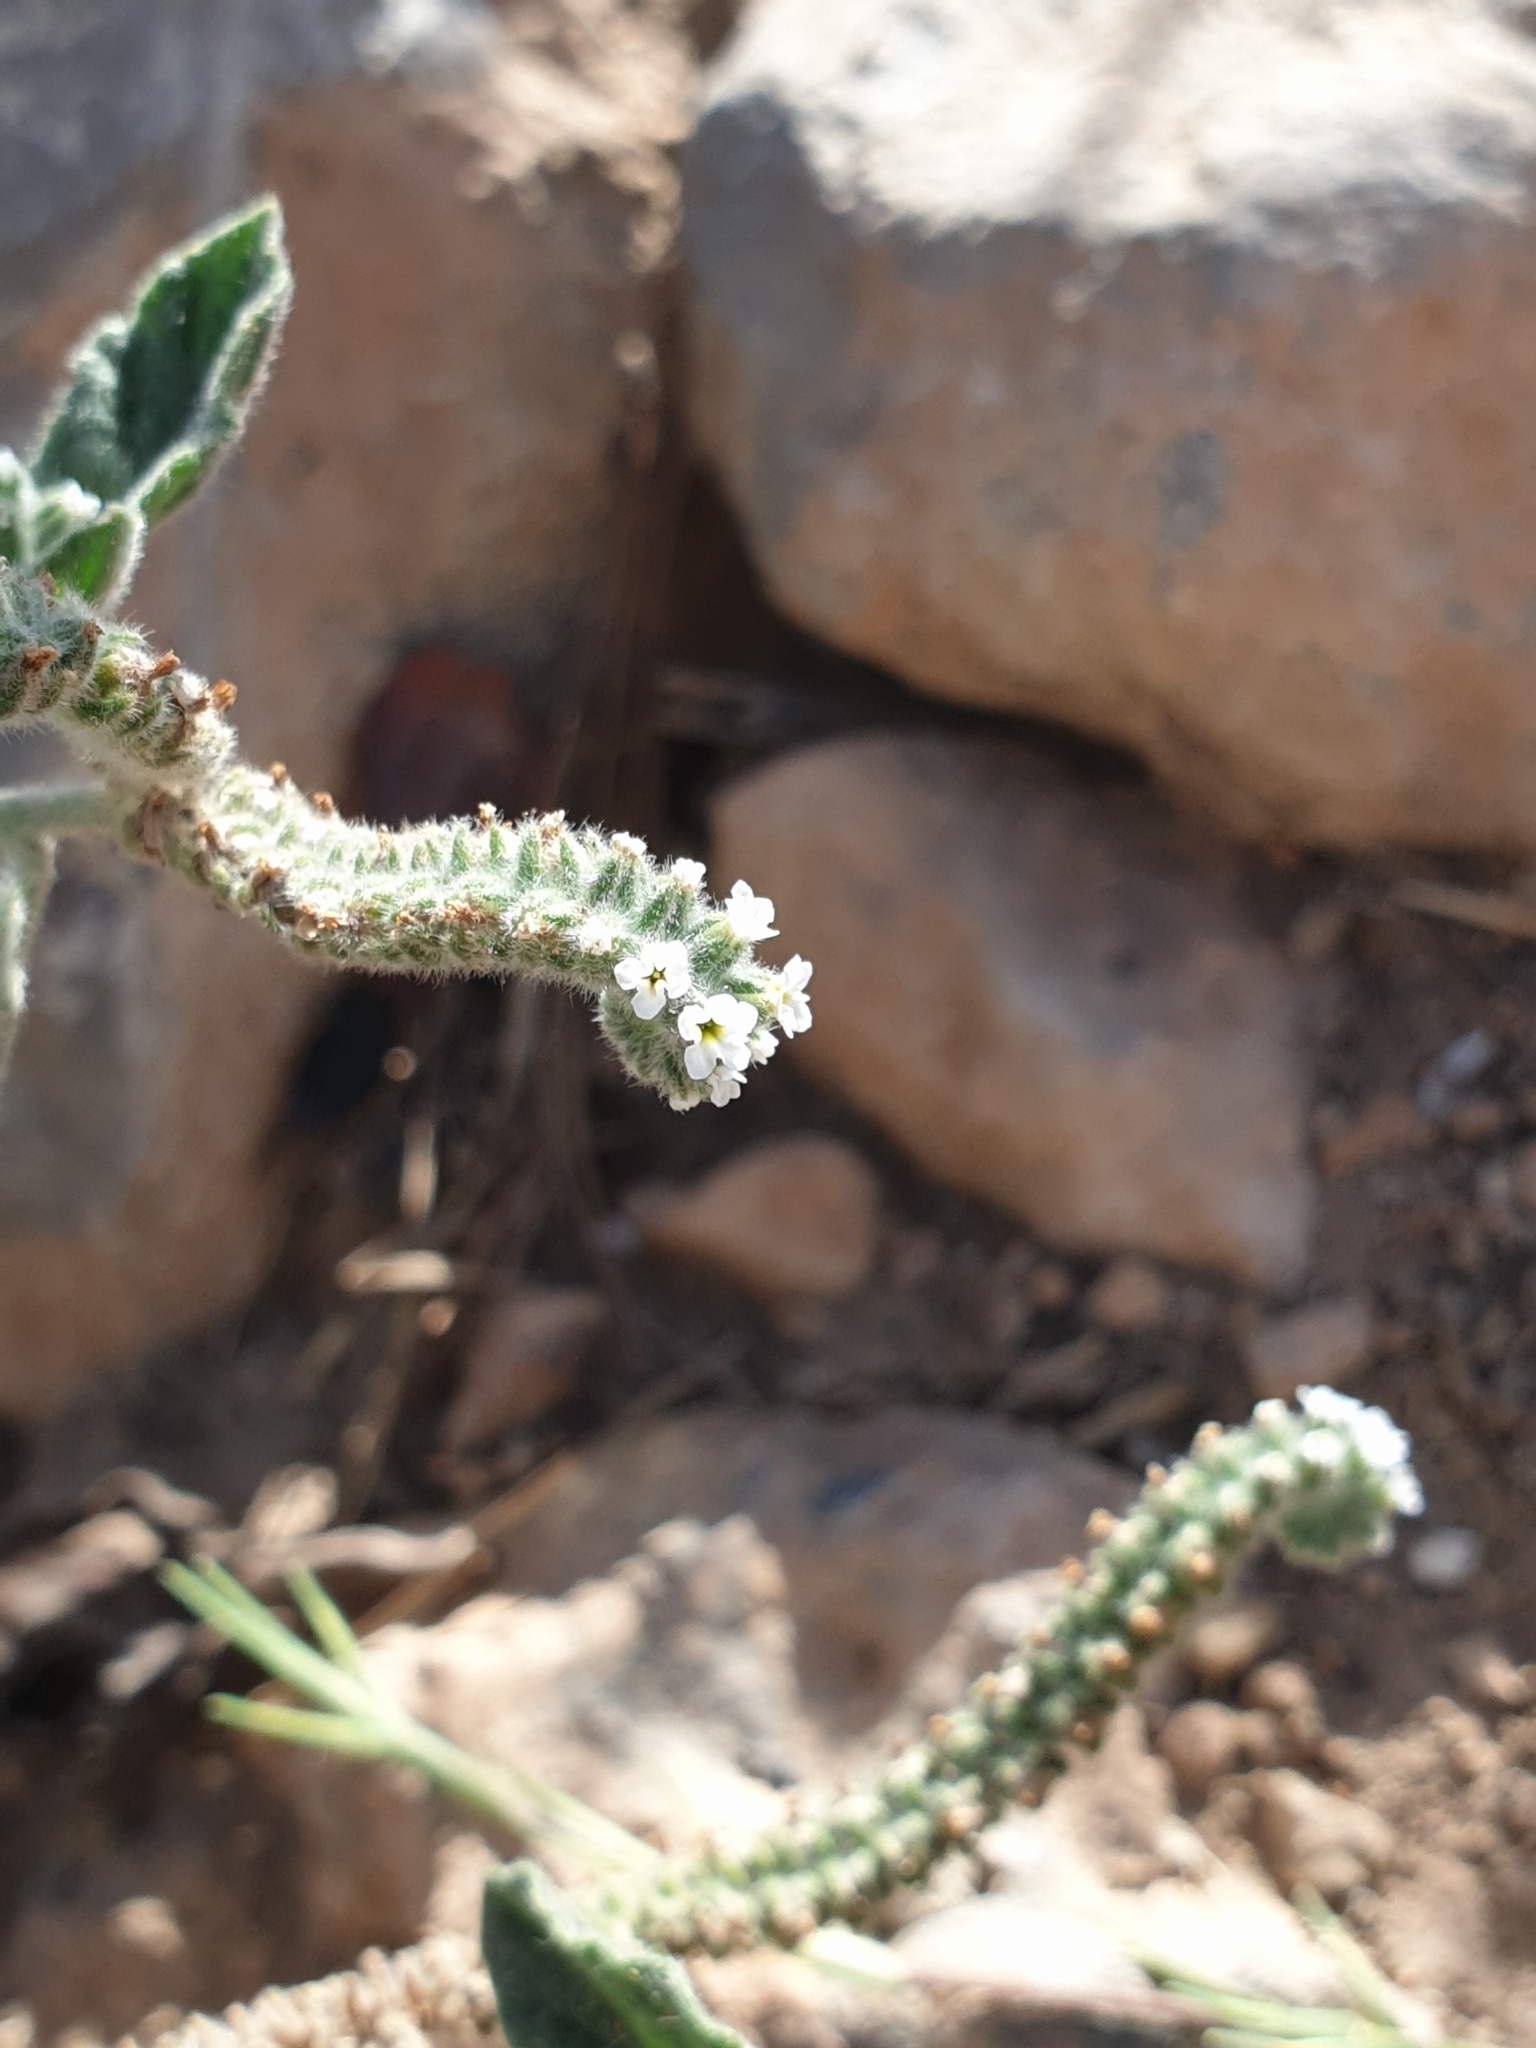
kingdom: Plantae
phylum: Tracheophyta
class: Magnoliopsida
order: Boraginales
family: Heliotropiaceae
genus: Heliotropium
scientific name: Heliotropium europaeum
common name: European heliotrope
